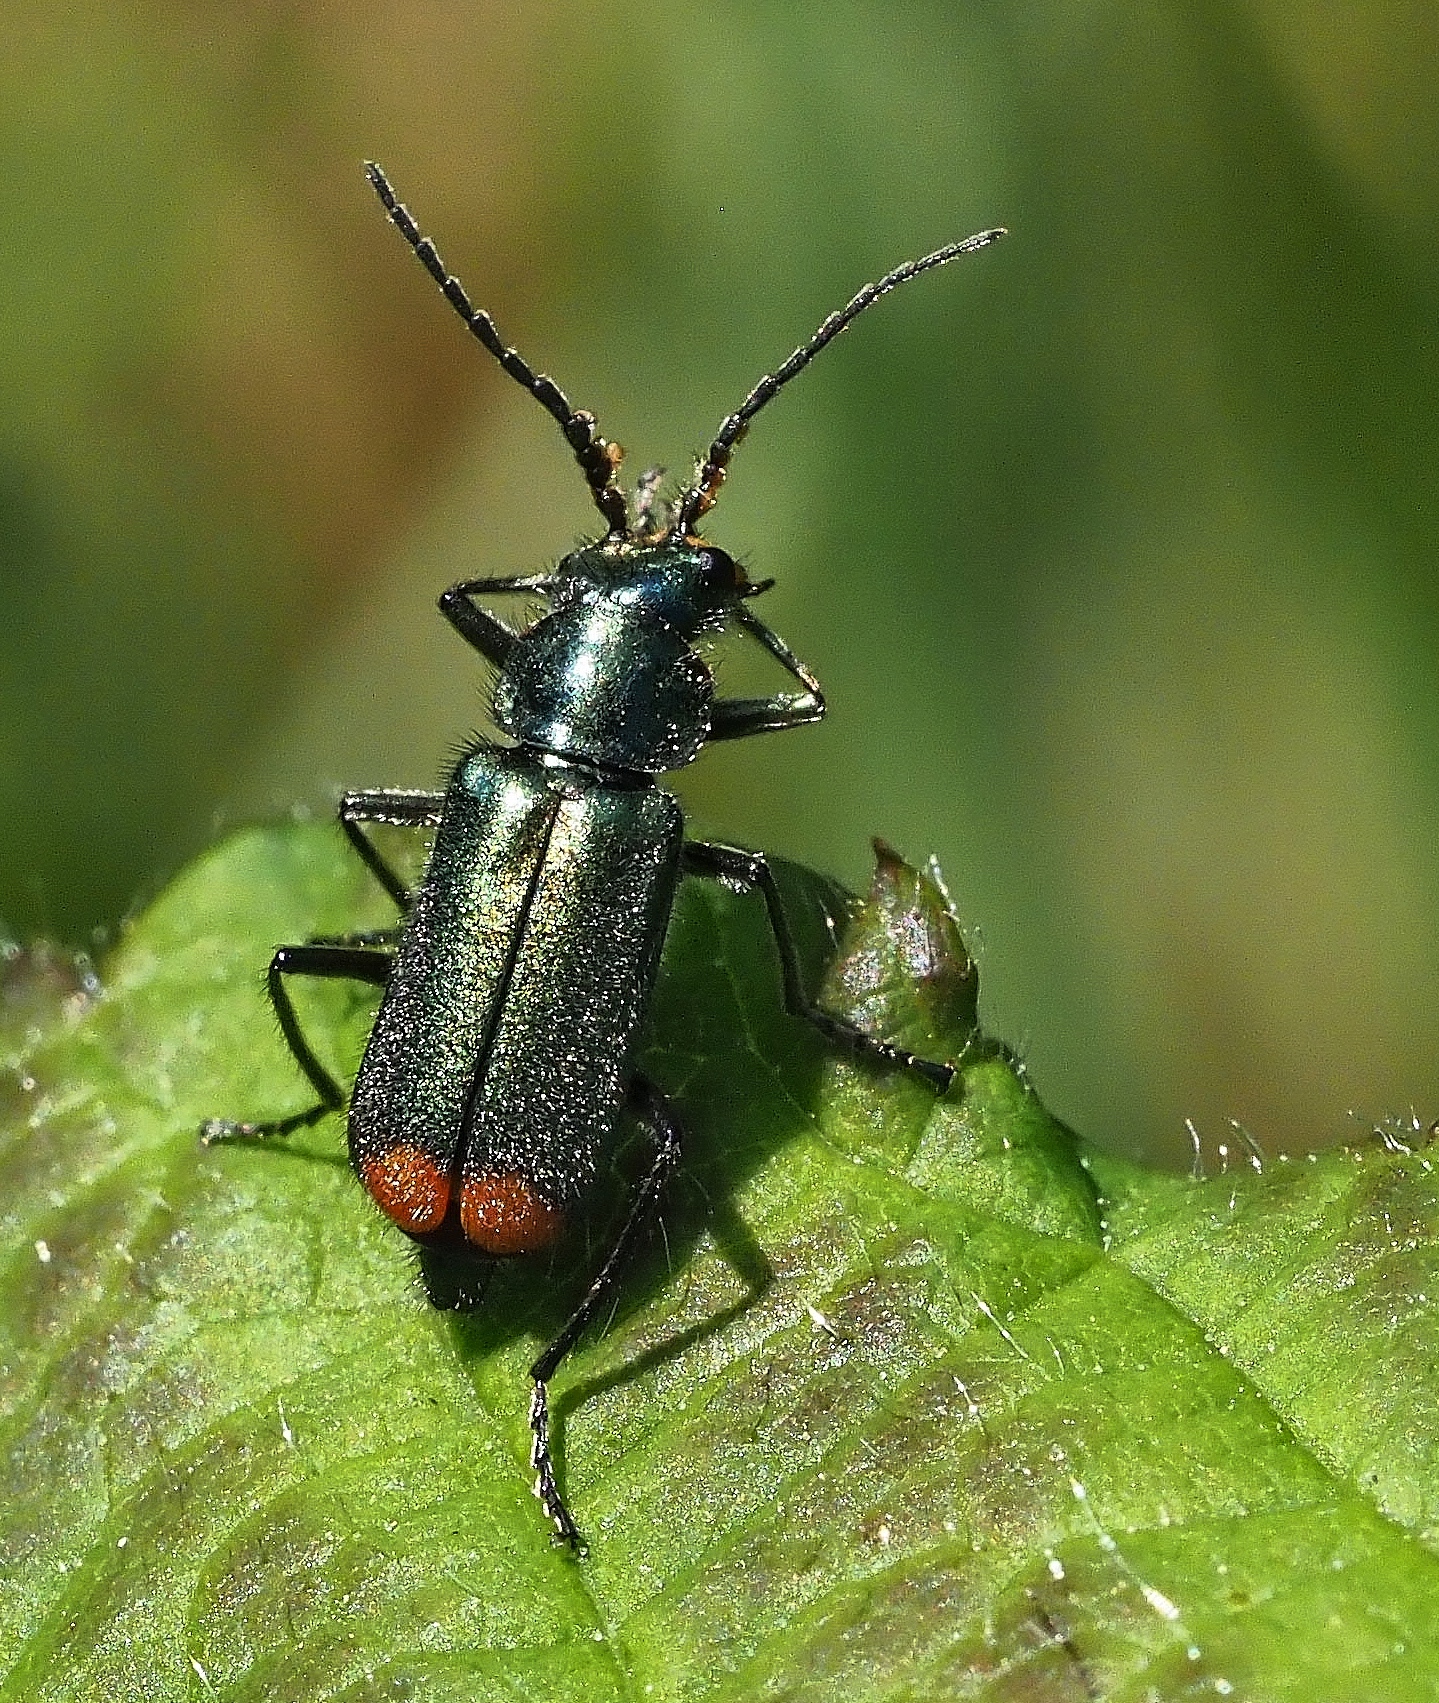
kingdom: Animalia
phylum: Arthropoda
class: Insecta
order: Coleoptera
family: Melyridae
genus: Malachius
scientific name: Malachius bipustulatus
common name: Malachite beetle
